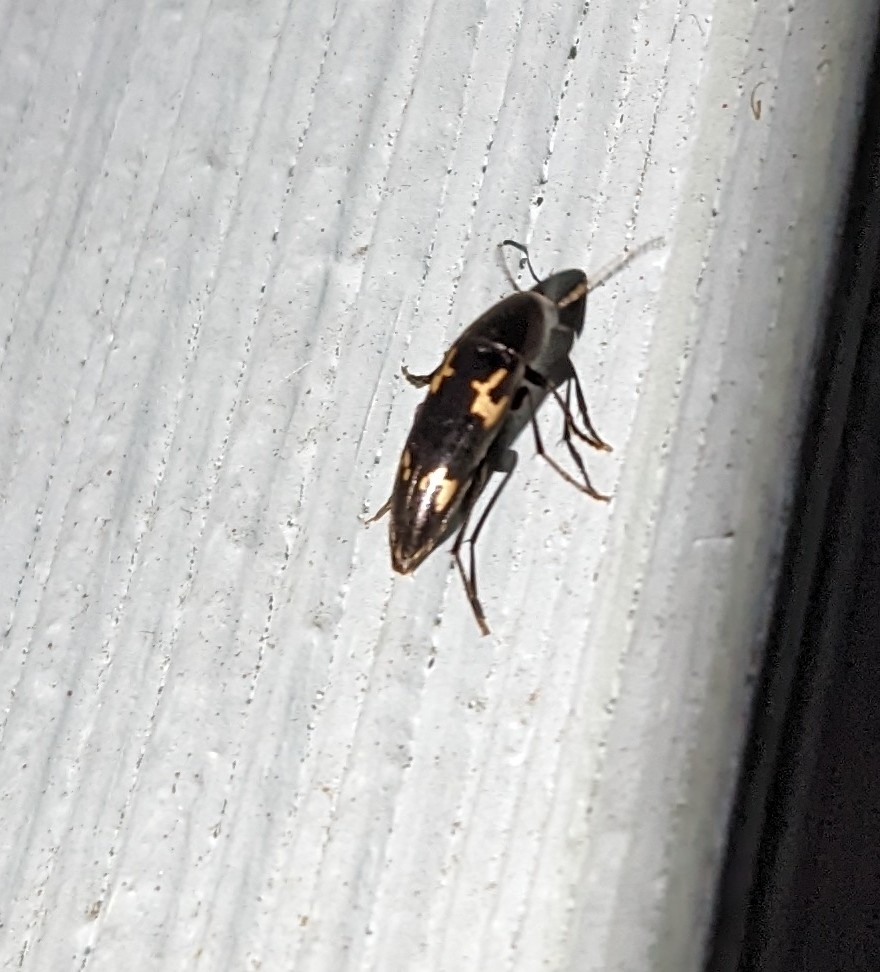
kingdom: Animalia
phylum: Arthropoda
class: Insecta
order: Coleoptera
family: Melandryidae
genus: Dircaea
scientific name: Dircaea liturata
